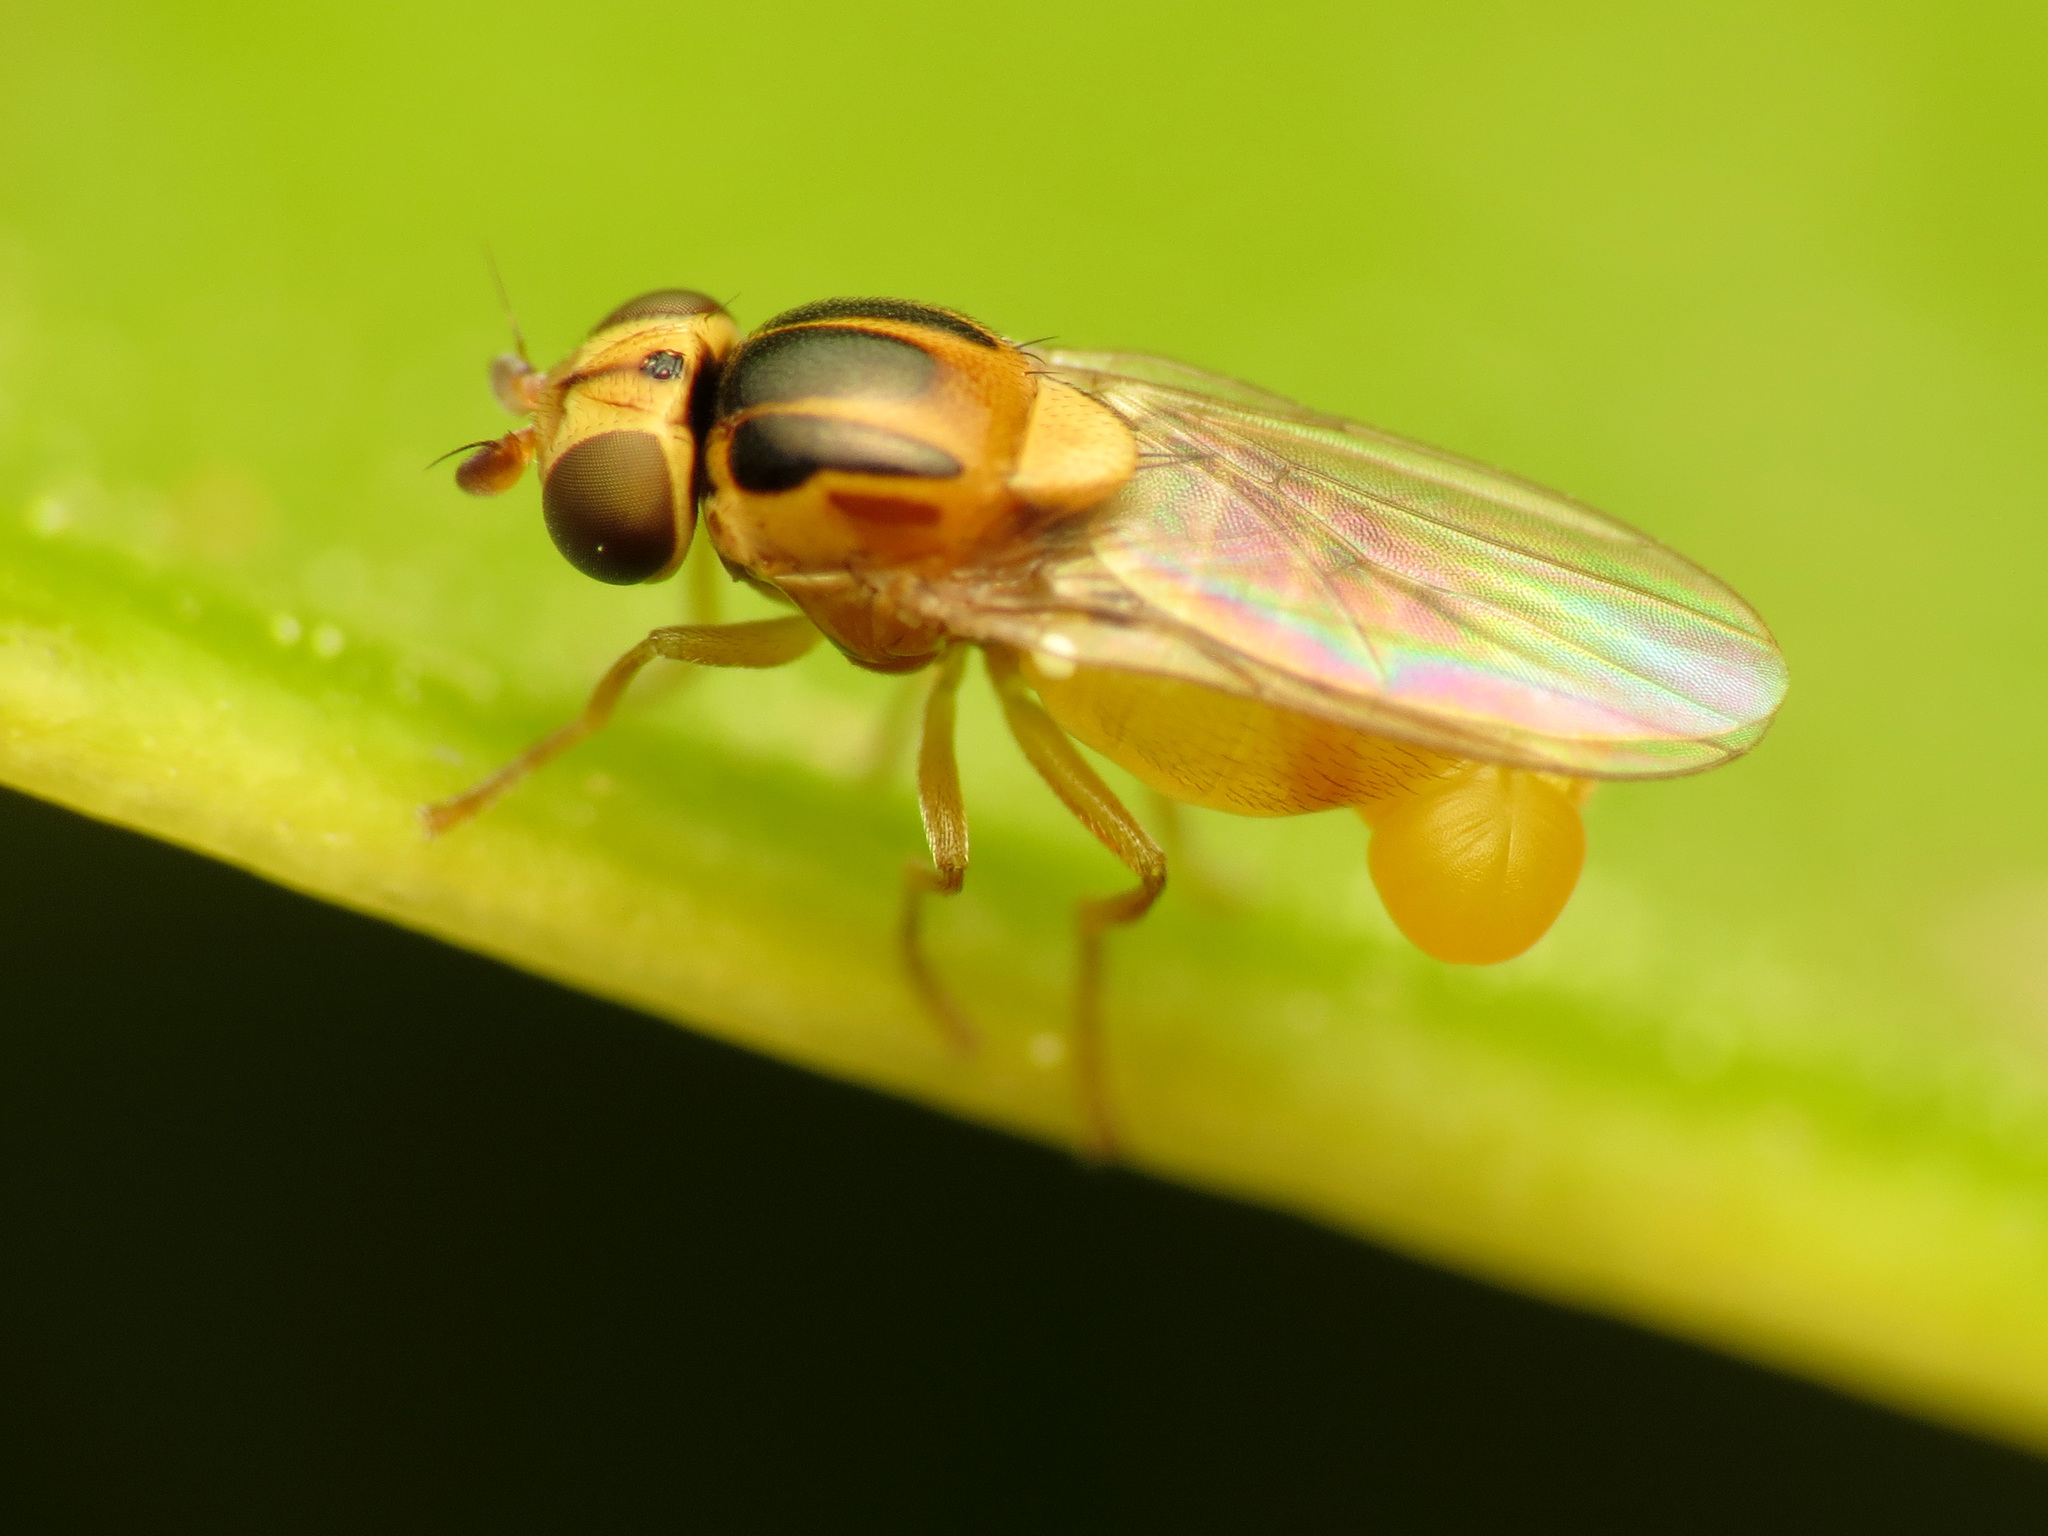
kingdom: Animalia
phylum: Arthropoda
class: Insecta
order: Diptera
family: Chloropidae
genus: Thaumatomyia
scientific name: Thaumatomyia notata
